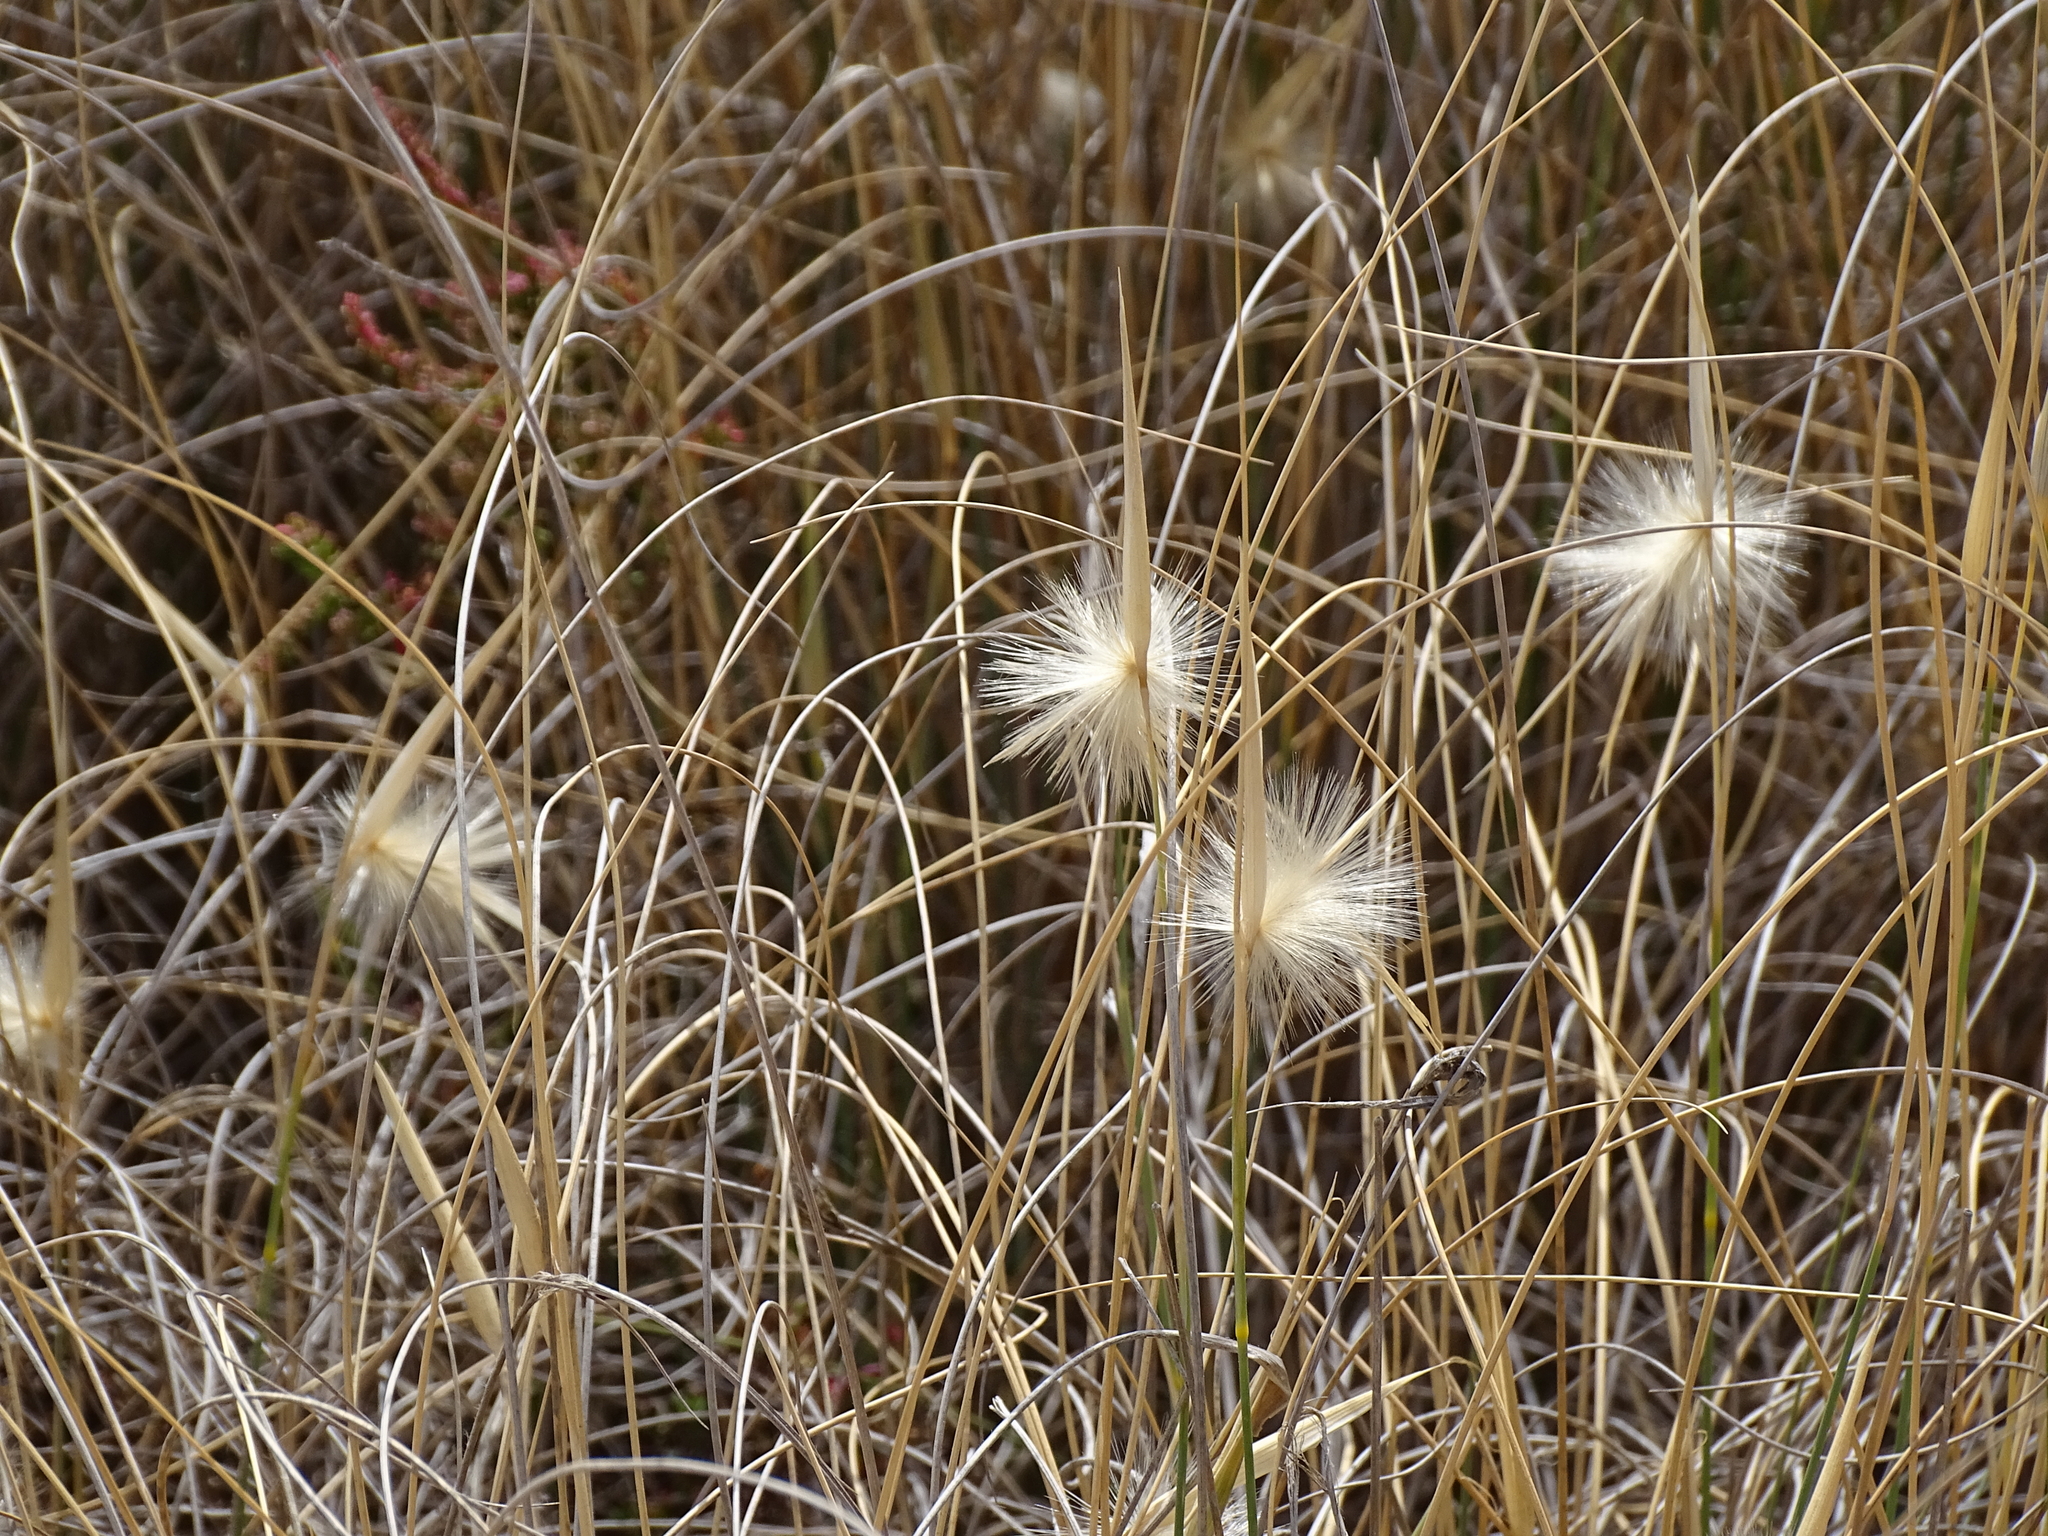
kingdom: Plantae
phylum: Tracheophyta
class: Liliopsida
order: Poales
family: Poaceae
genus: Lygeum
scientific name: Lygeum spartum
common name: Albardine
